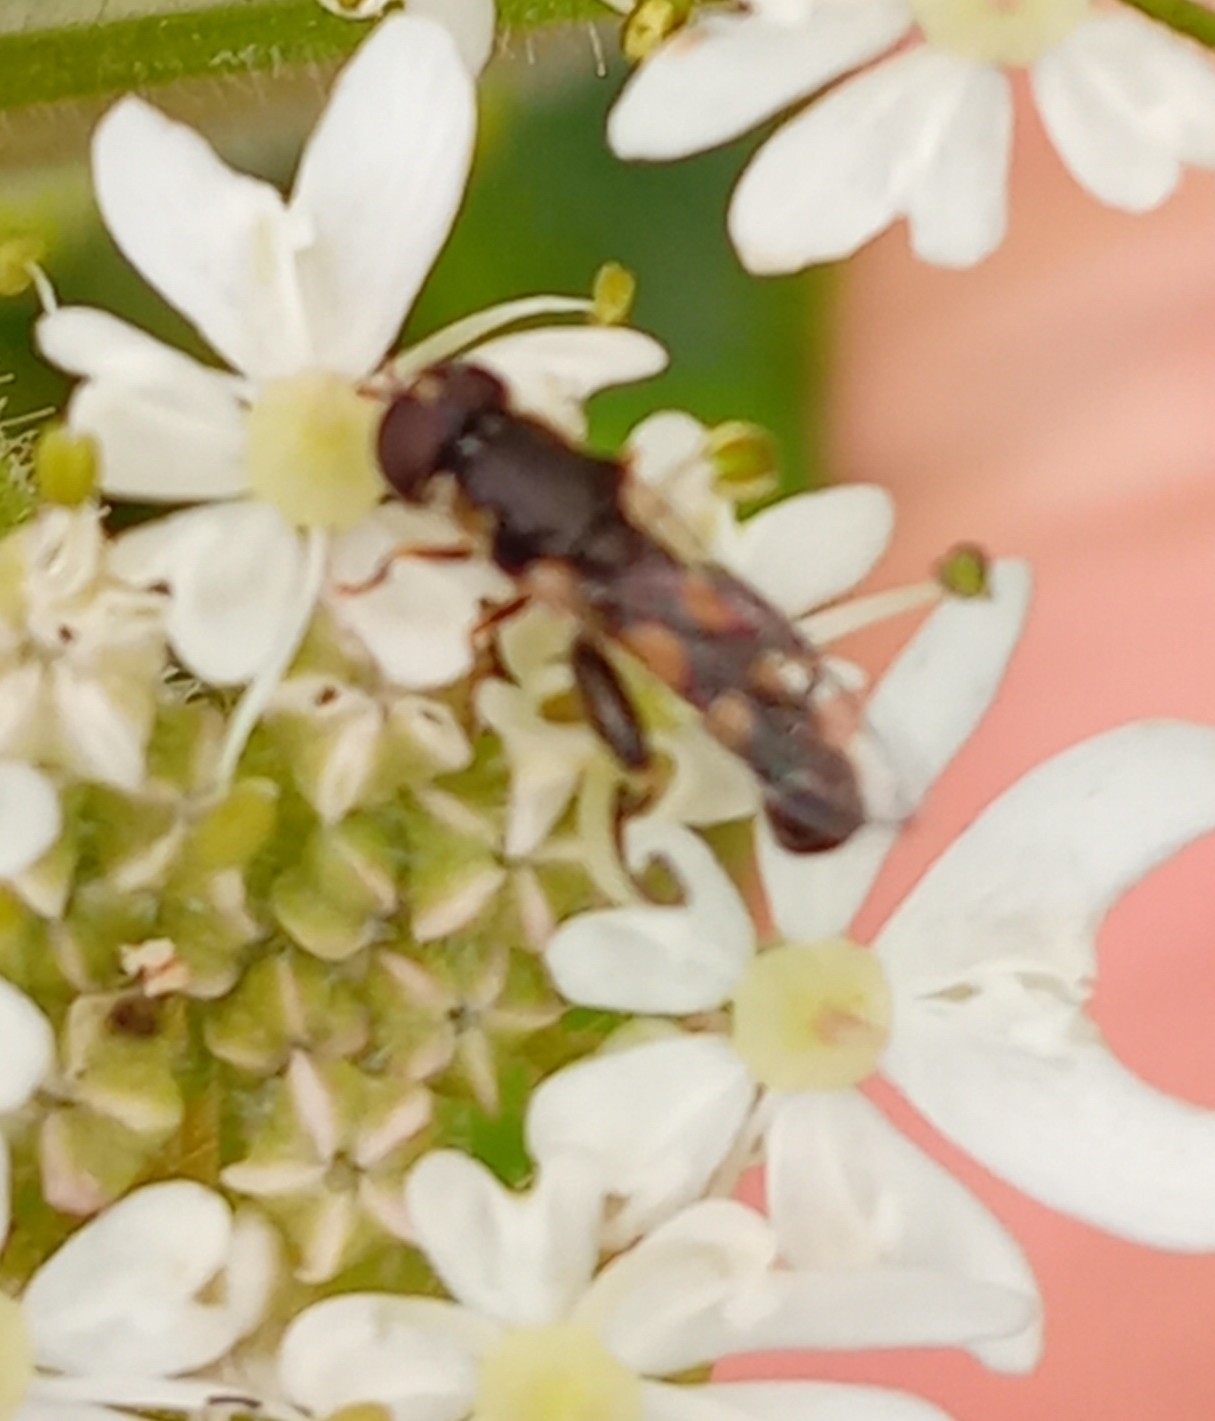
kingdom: Animalia
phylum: Arthropoda
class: Insecta
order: Diptera
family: Syrphidae
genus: Syritta
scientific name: Syritta pipiens
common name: Hover fly
